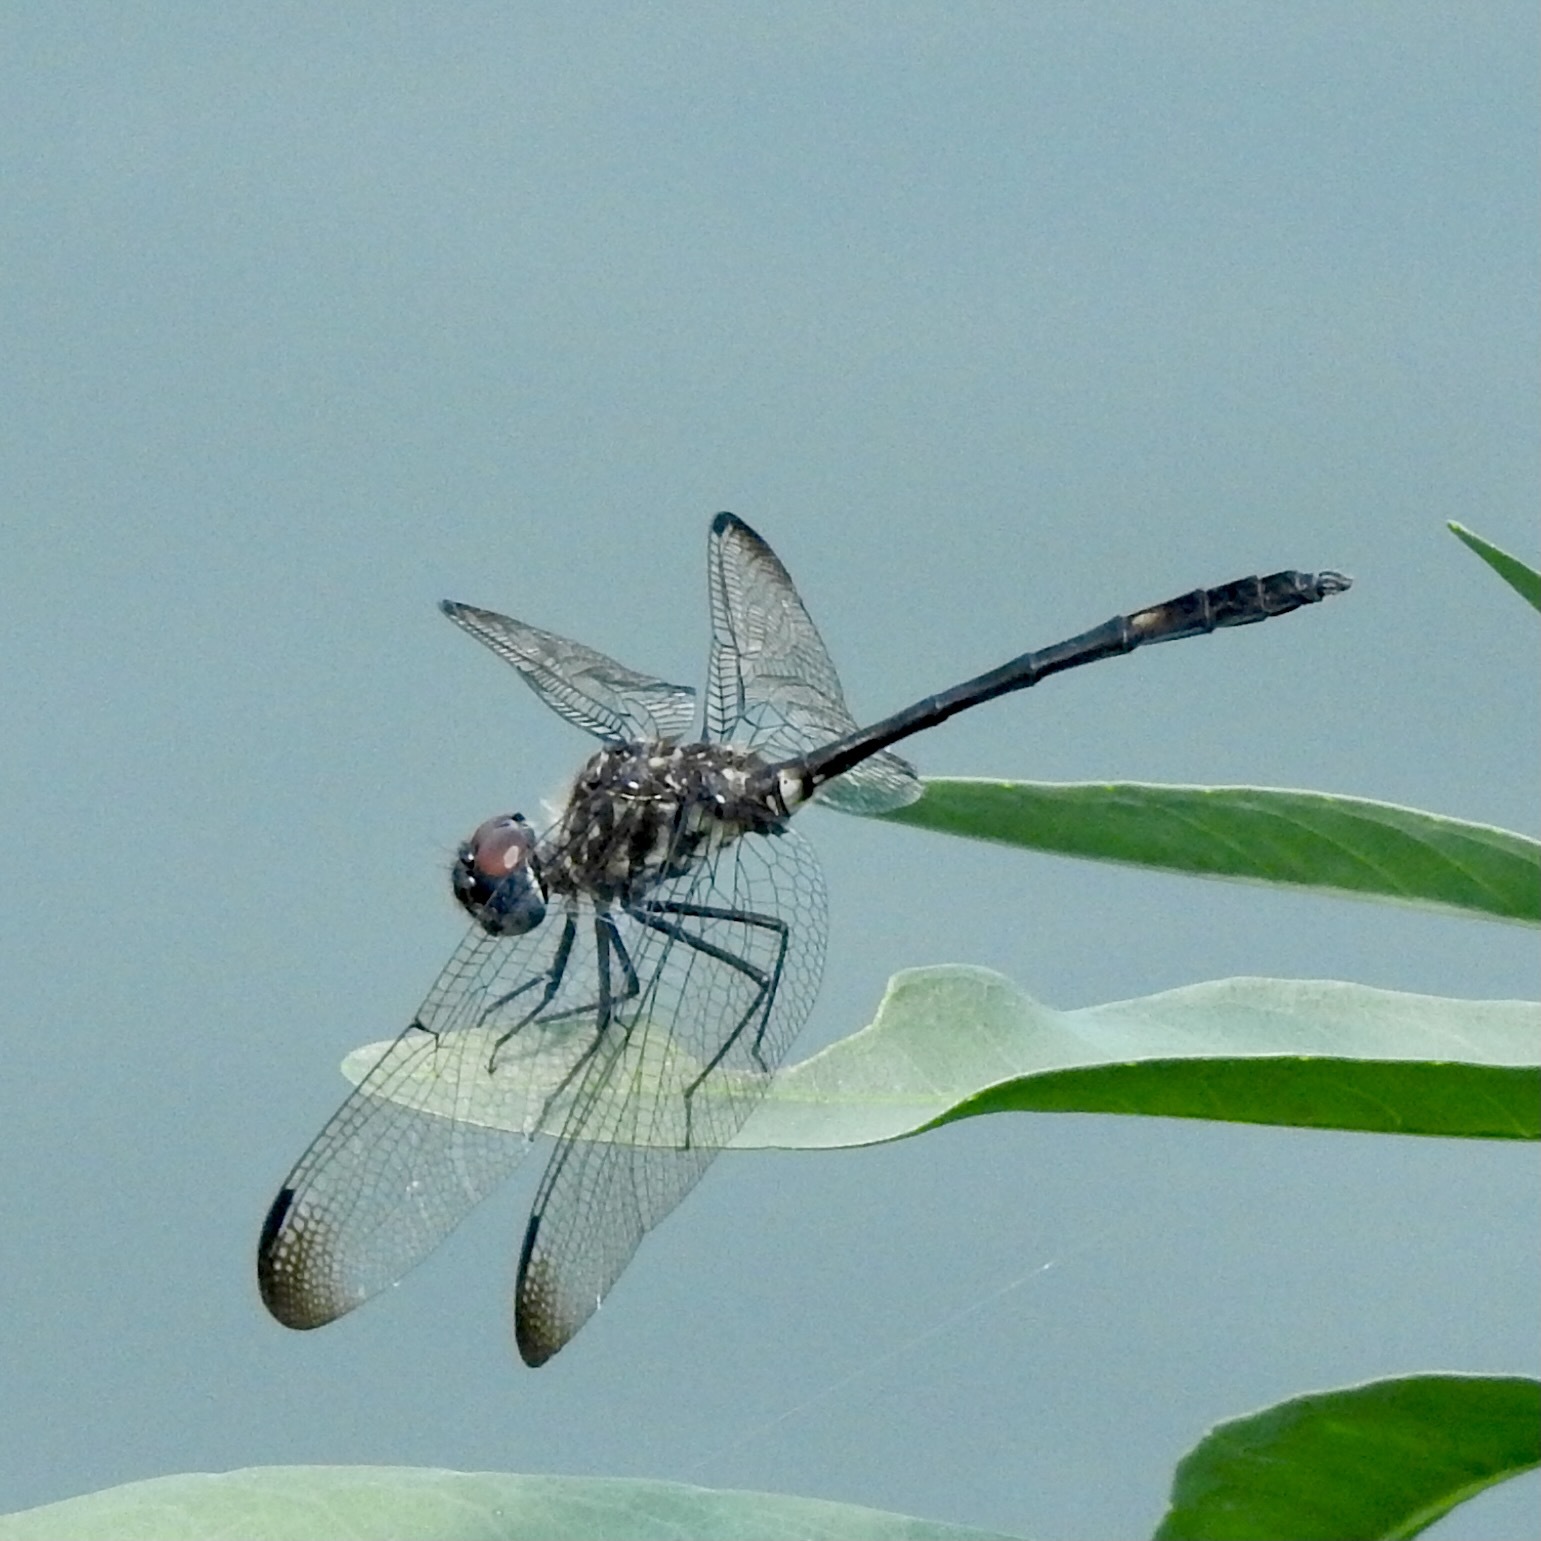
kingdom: Animalia
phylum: Arthropoda
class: Insecta
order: Odonata
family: Libellulidae
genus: Dythemis
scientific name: Dythemis velox
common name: Swift setwing
